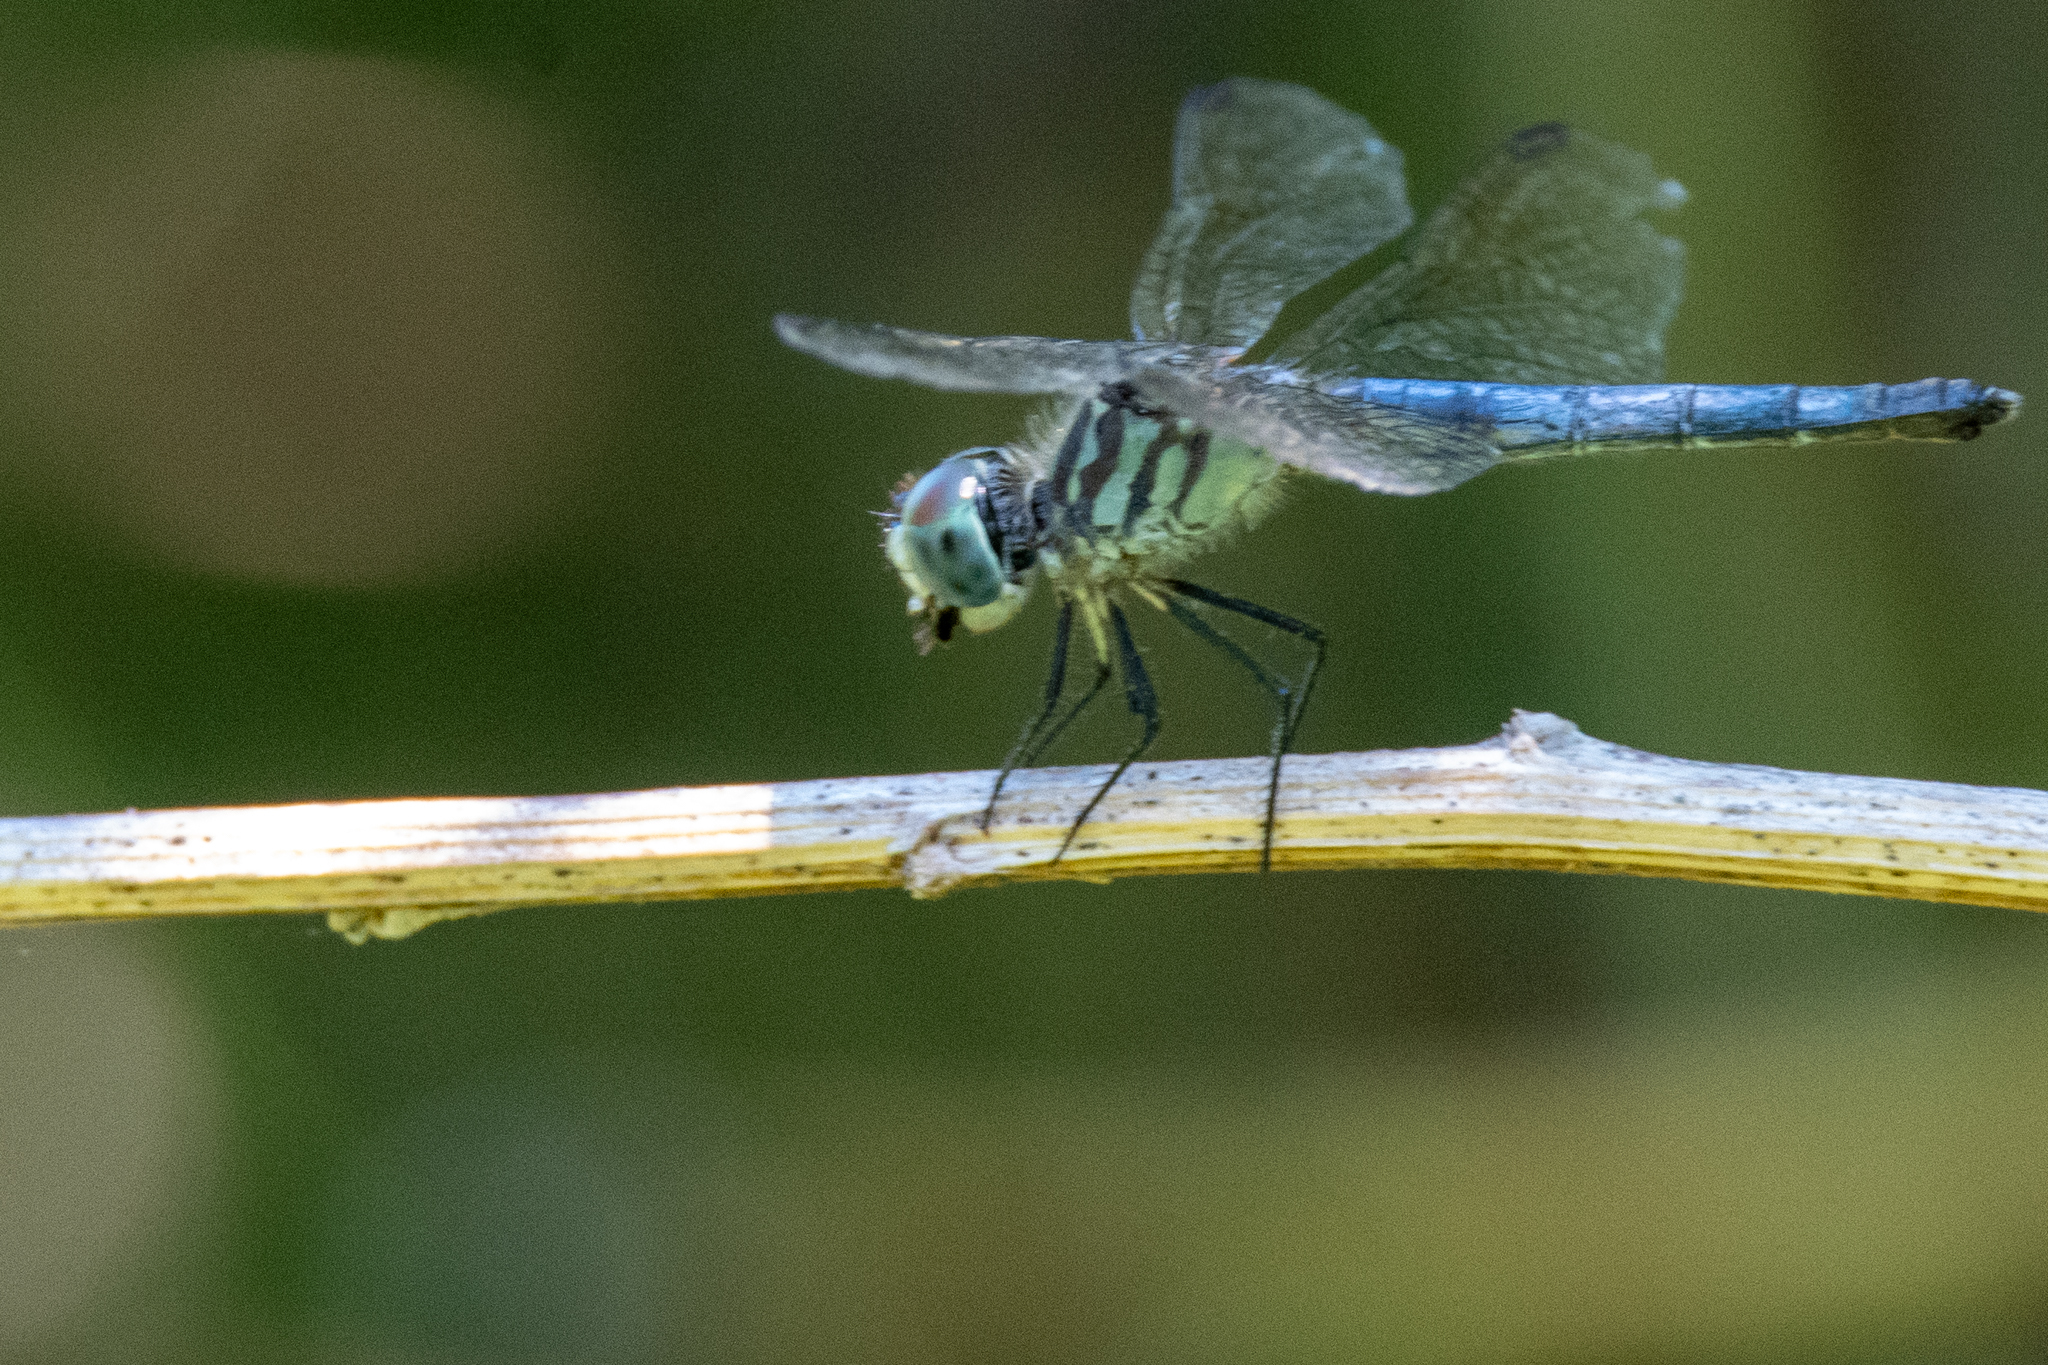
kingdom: Animalia
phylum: Arthropoda
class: Insecta
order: Odonata
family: Libellulidae
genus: Pachydiplax
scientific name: Pachydiplax longipennis
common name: Blue dasher
